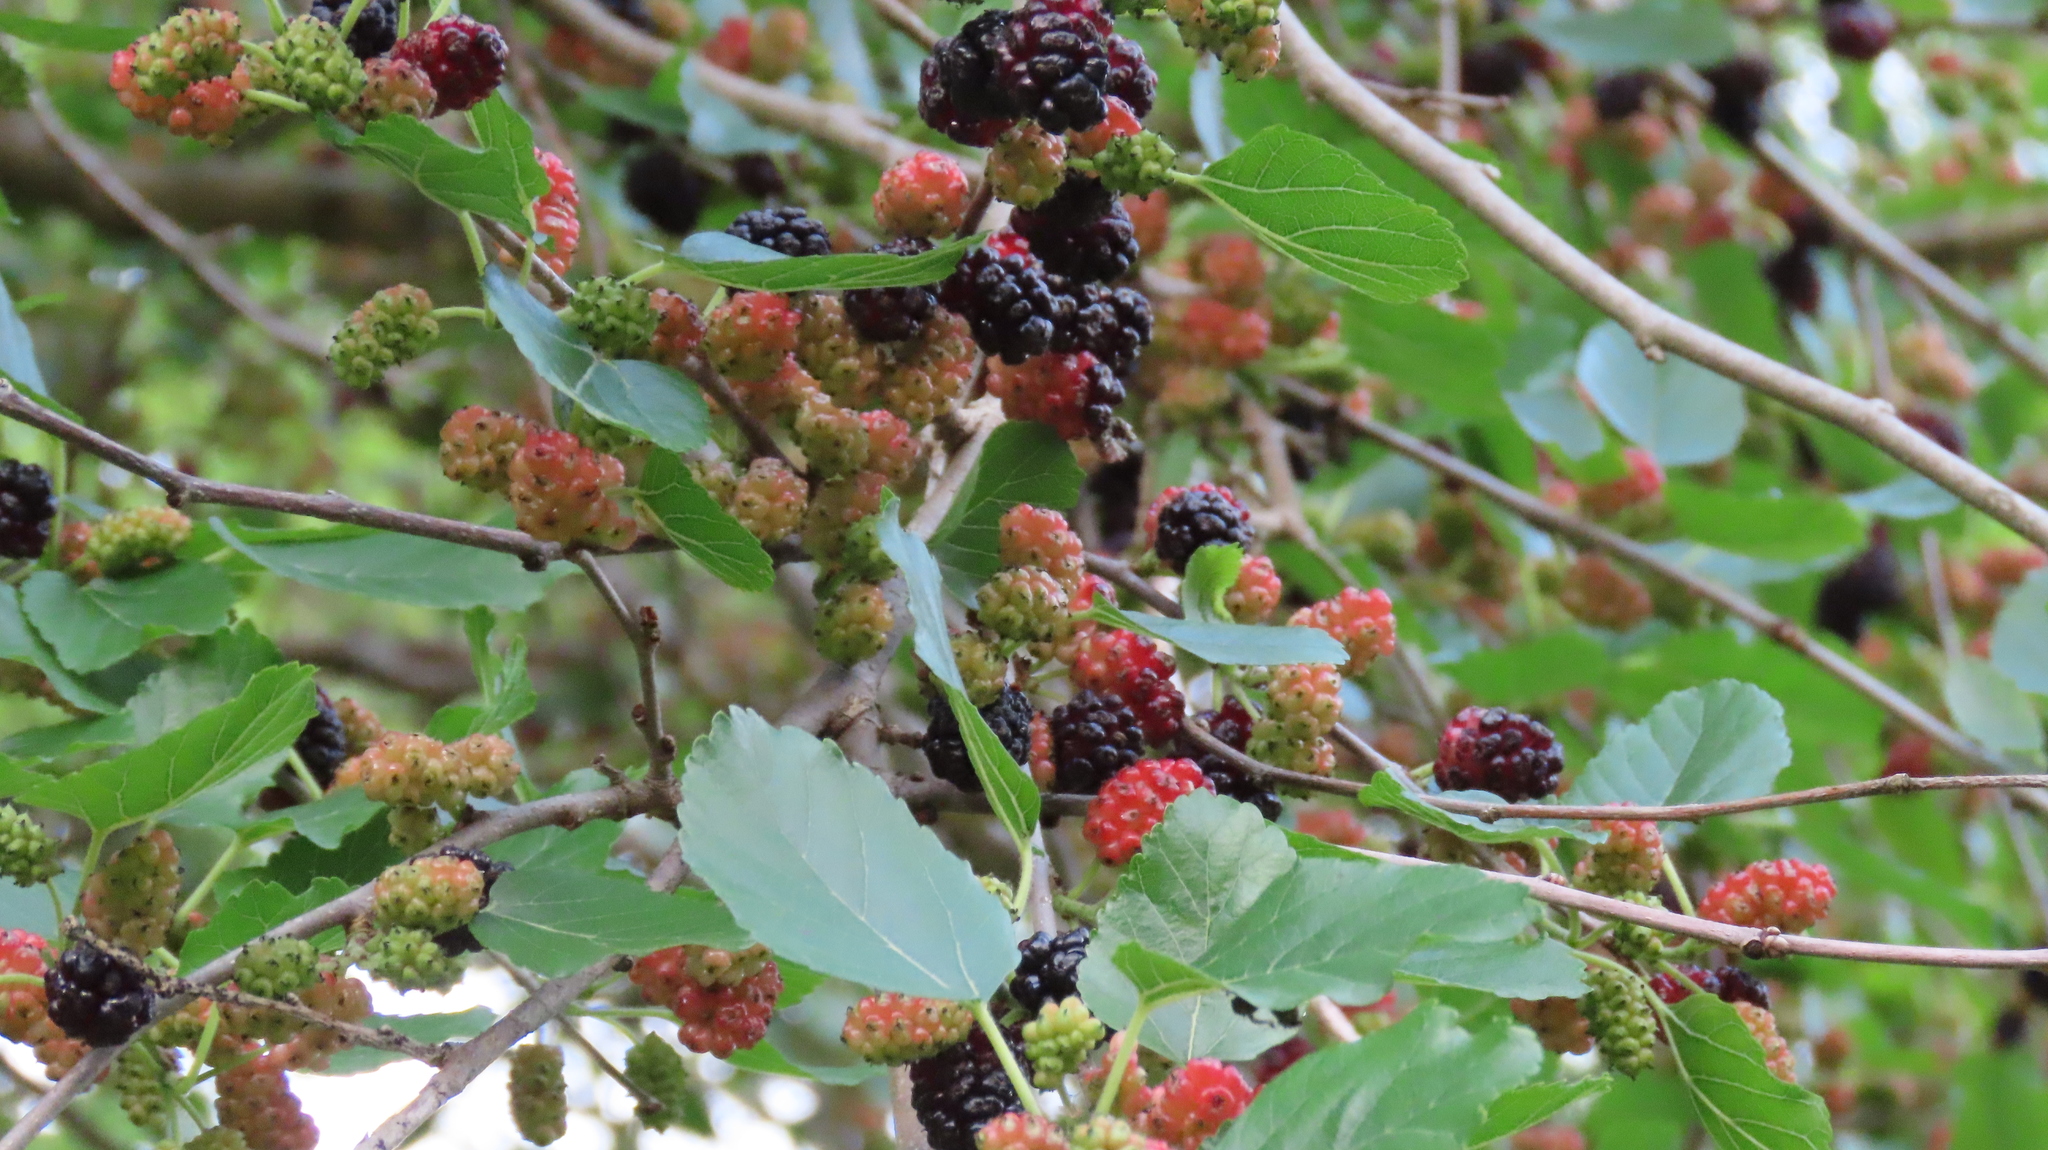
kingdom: Plantae
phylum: Tracheophyta
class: Magnoliopsida
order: Rosales
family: Moraceae
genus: Morus
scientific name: Morus alba
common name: White mulberry
